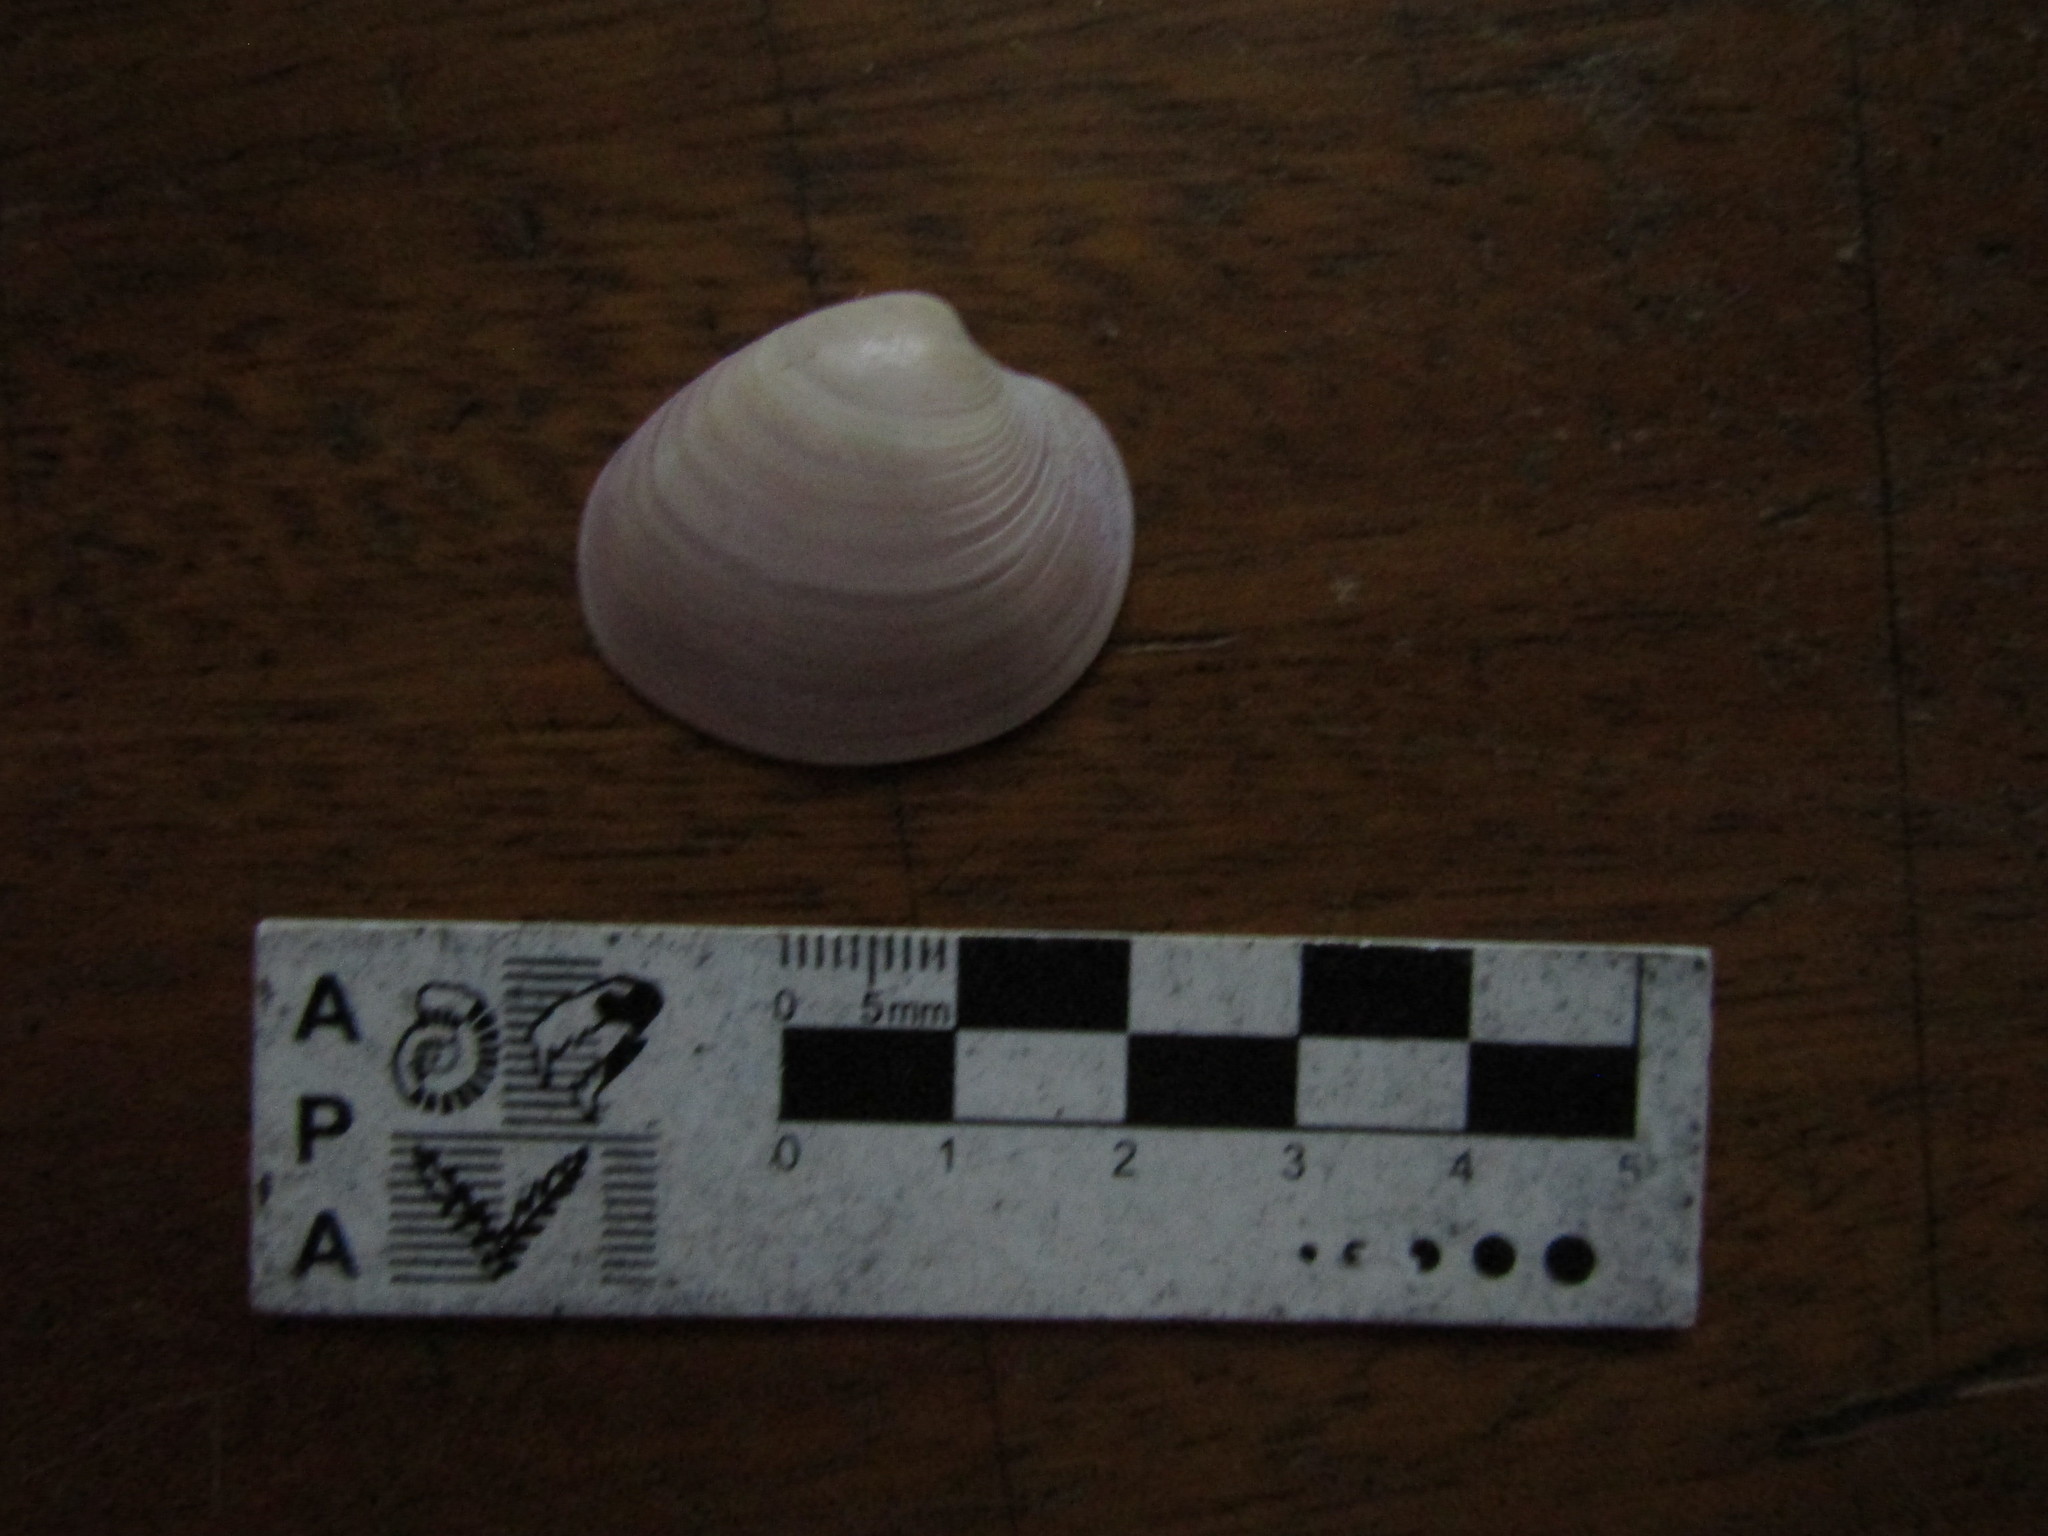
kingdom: Animalia
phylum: Mollusca
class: Bivalvia
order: Venerida
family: Veneridae
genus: Eucallista
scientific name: Eucallista purpurata
